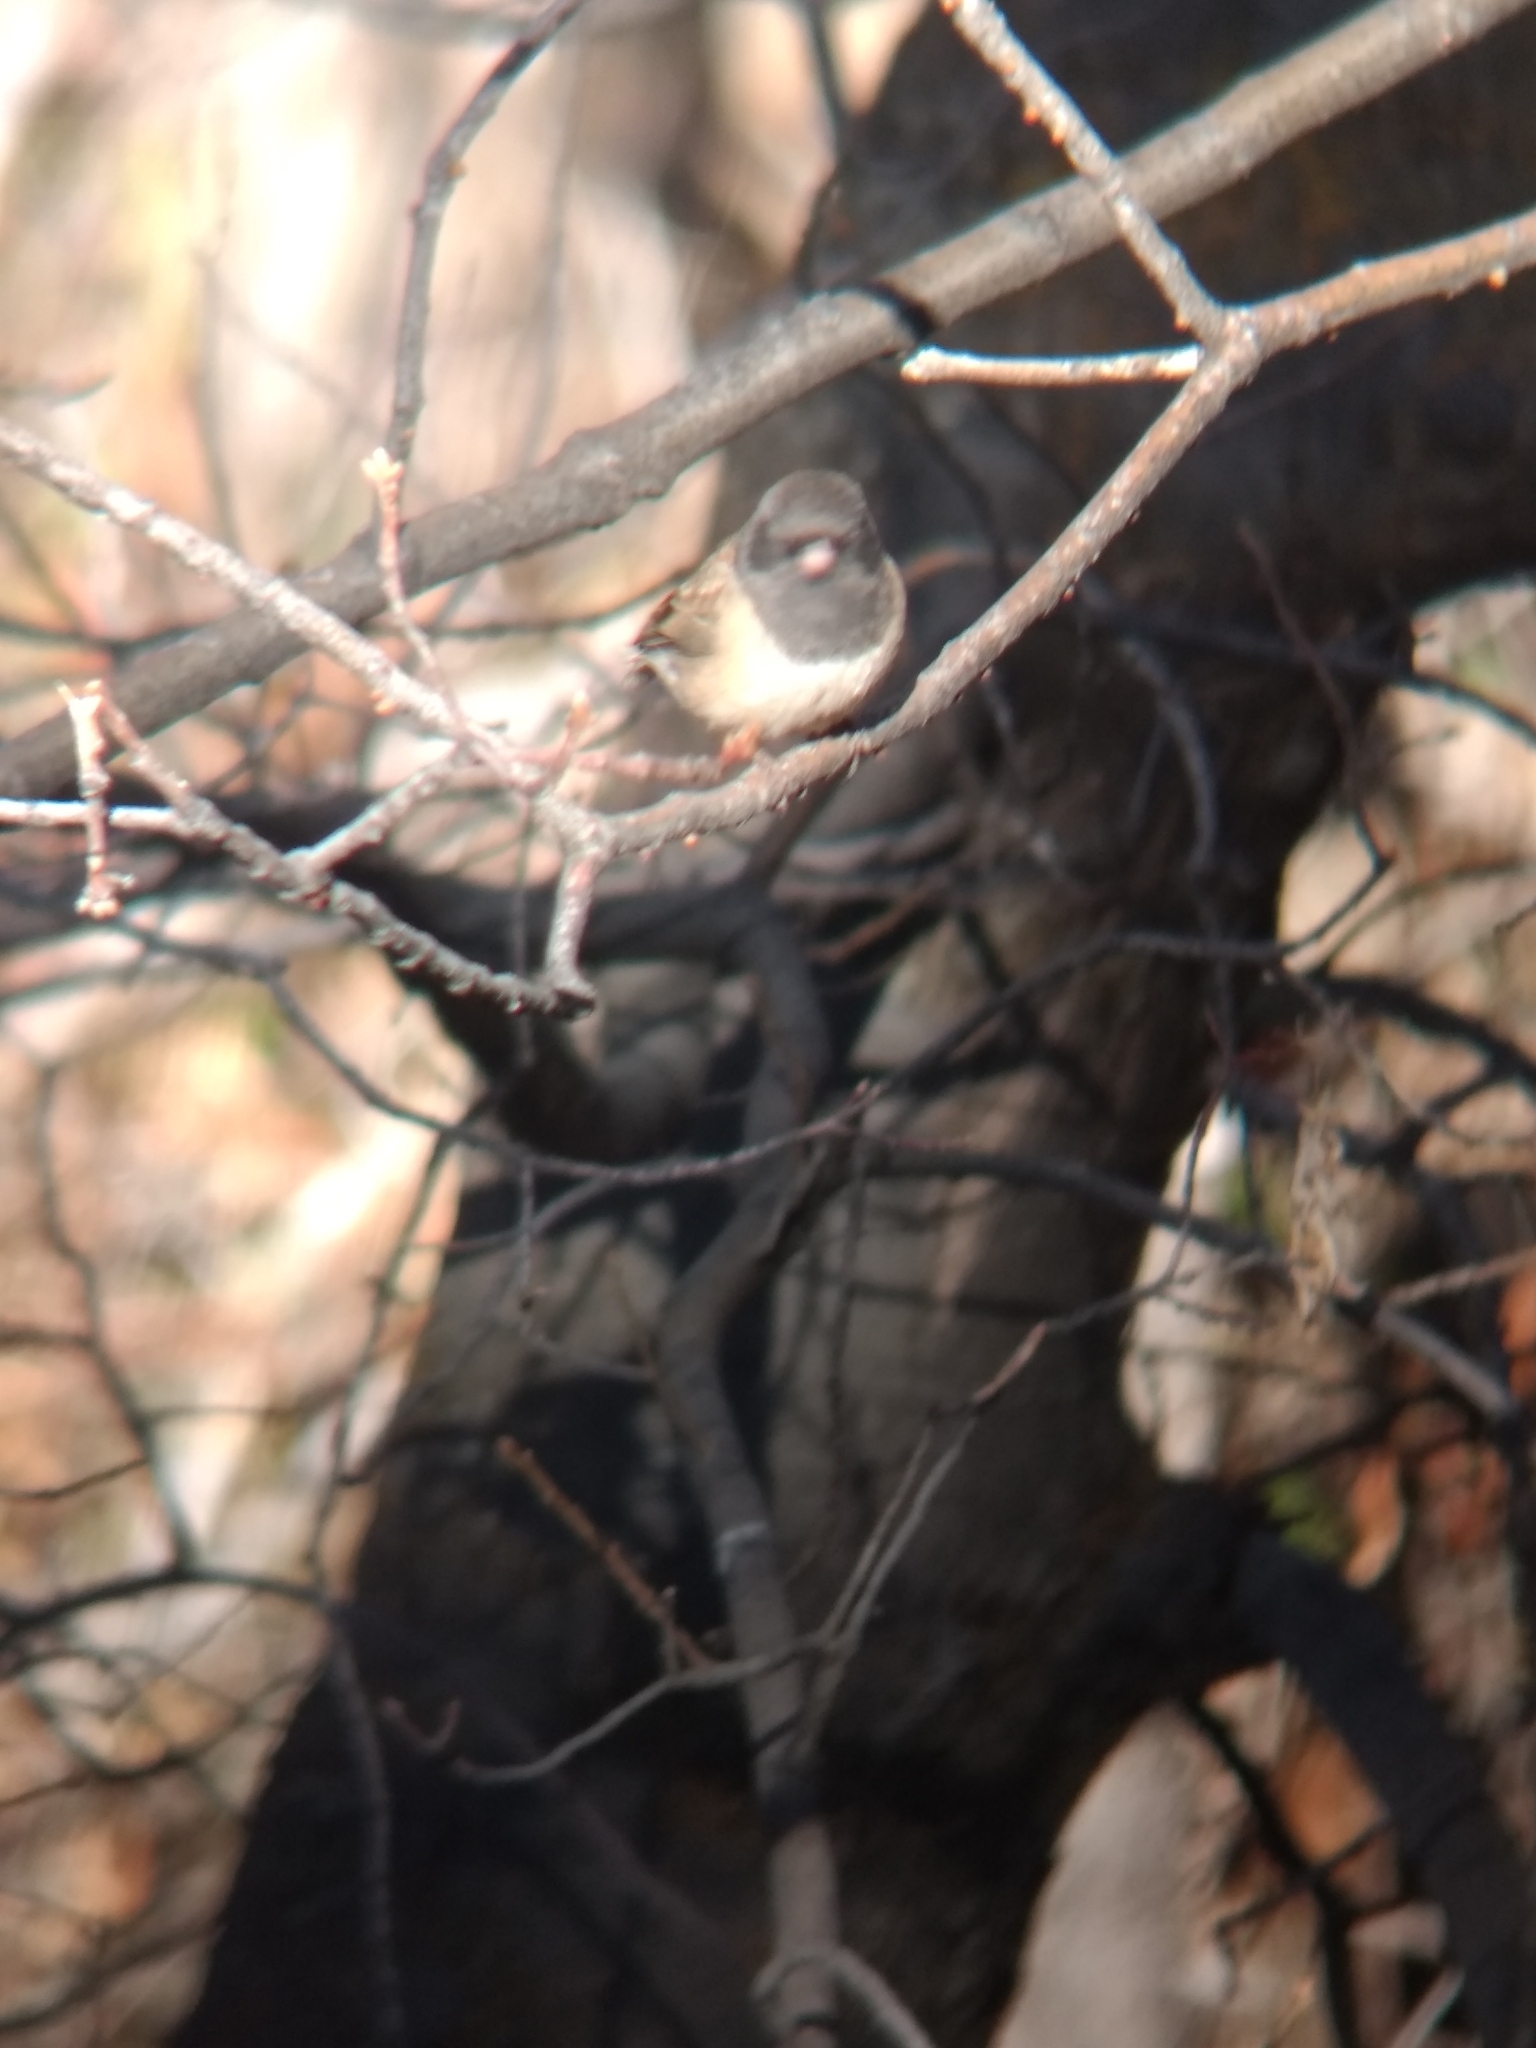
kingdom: Animalia
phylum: Chordata
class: Aves
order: Passeriformes
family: Passerellidae
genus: Junco
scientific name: Junco hyemalis
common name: Dark-eyed junco
